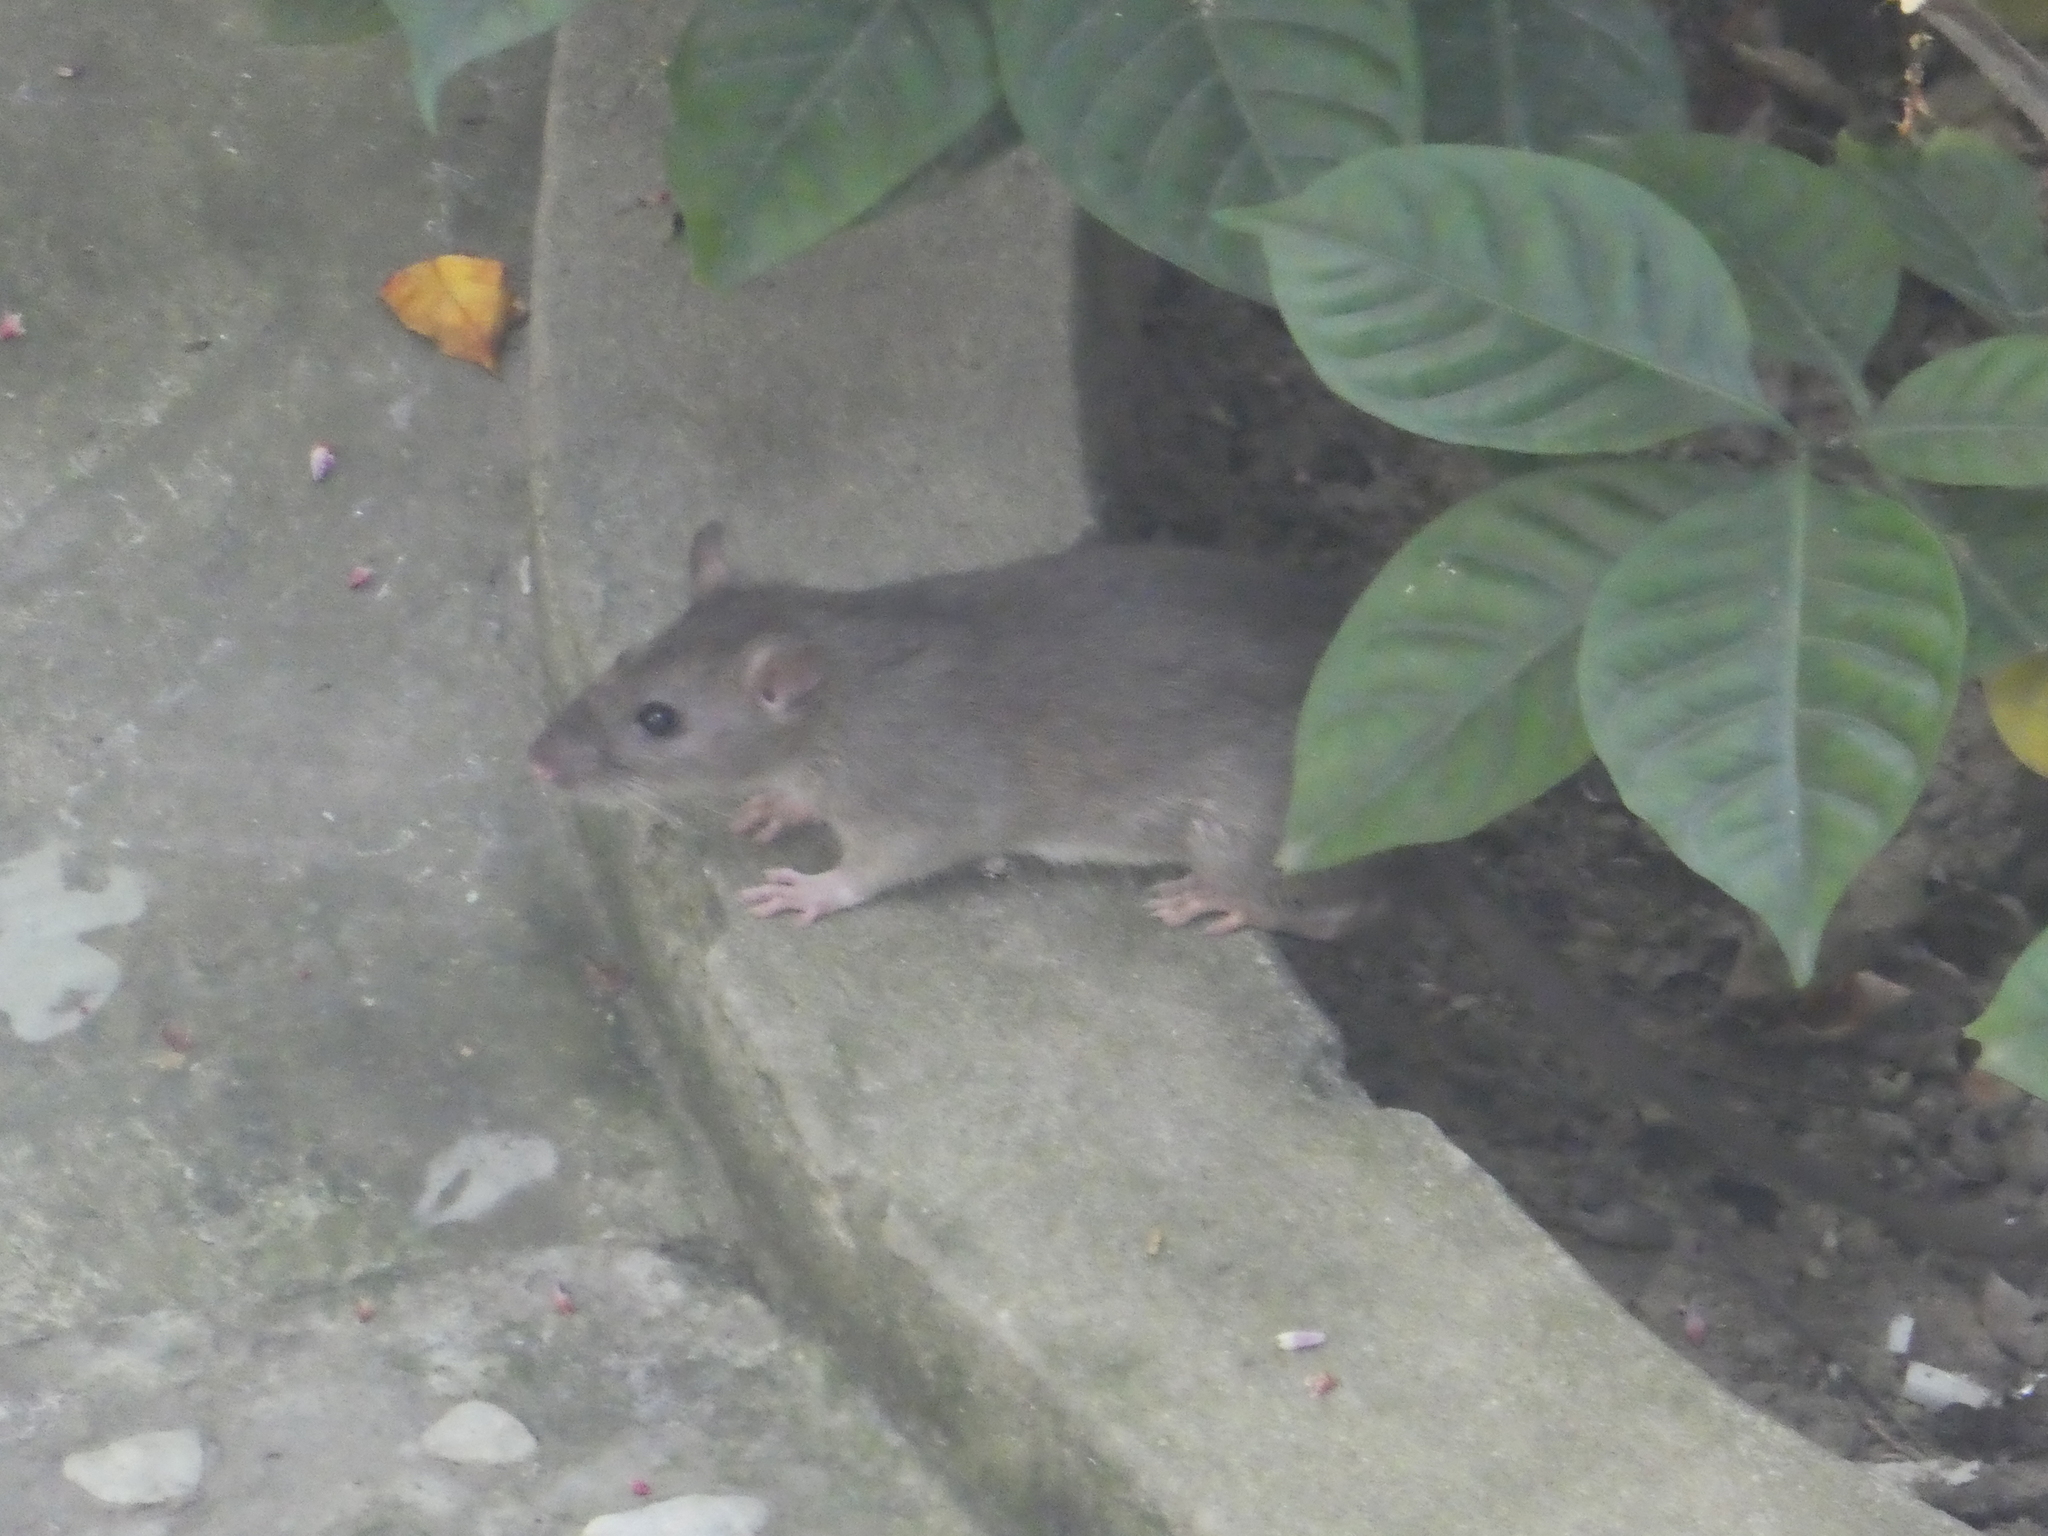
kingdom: Animalia
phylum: Chordata
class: Mammalia
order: Rodentia
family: Muridae
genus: Rattus
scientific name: Rattus rattus
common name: Black rat
